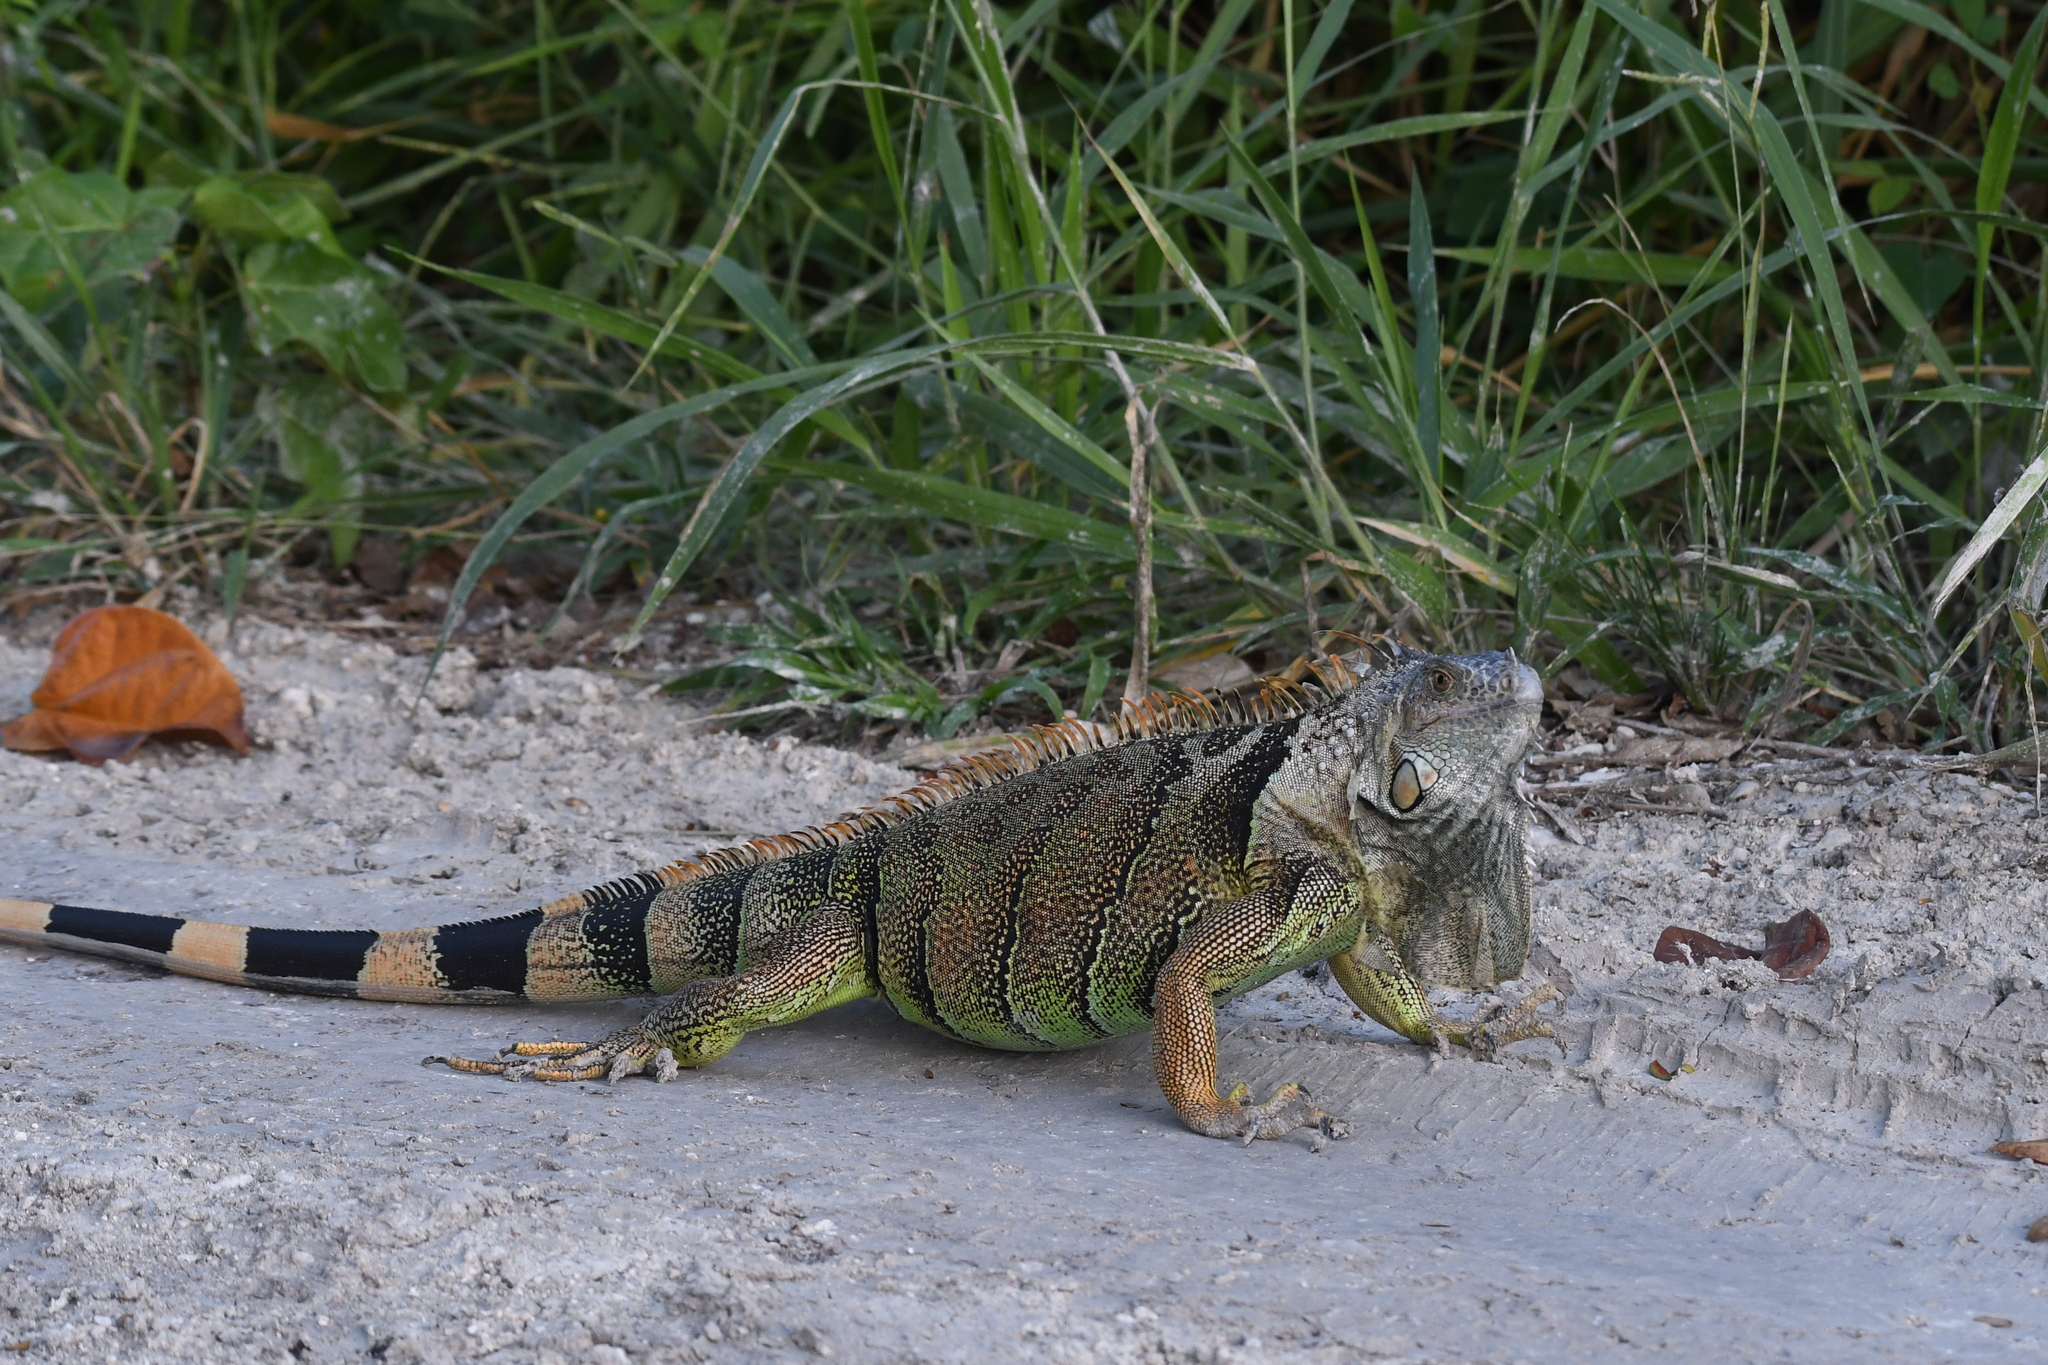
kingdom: Animalia
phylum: Chordata
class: Squamata
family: Iguanidae
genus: Iguana
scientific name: Iguana iguana
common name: Green iguana
